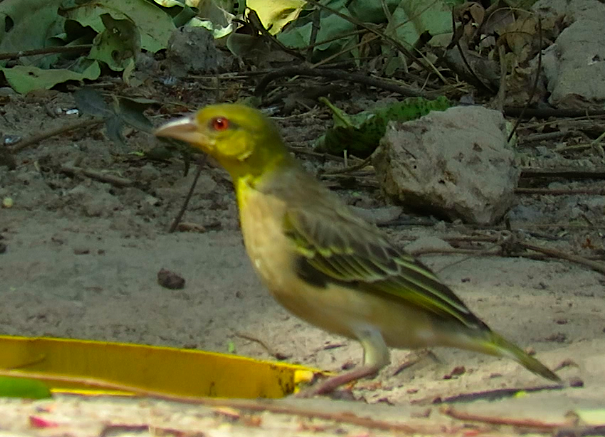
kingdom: Animalia
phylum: Chordata
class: Aves
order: Passeriformes
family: Ploceidae
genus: Ploceus
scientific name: Ploceus cucullatus
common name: Village weaver
